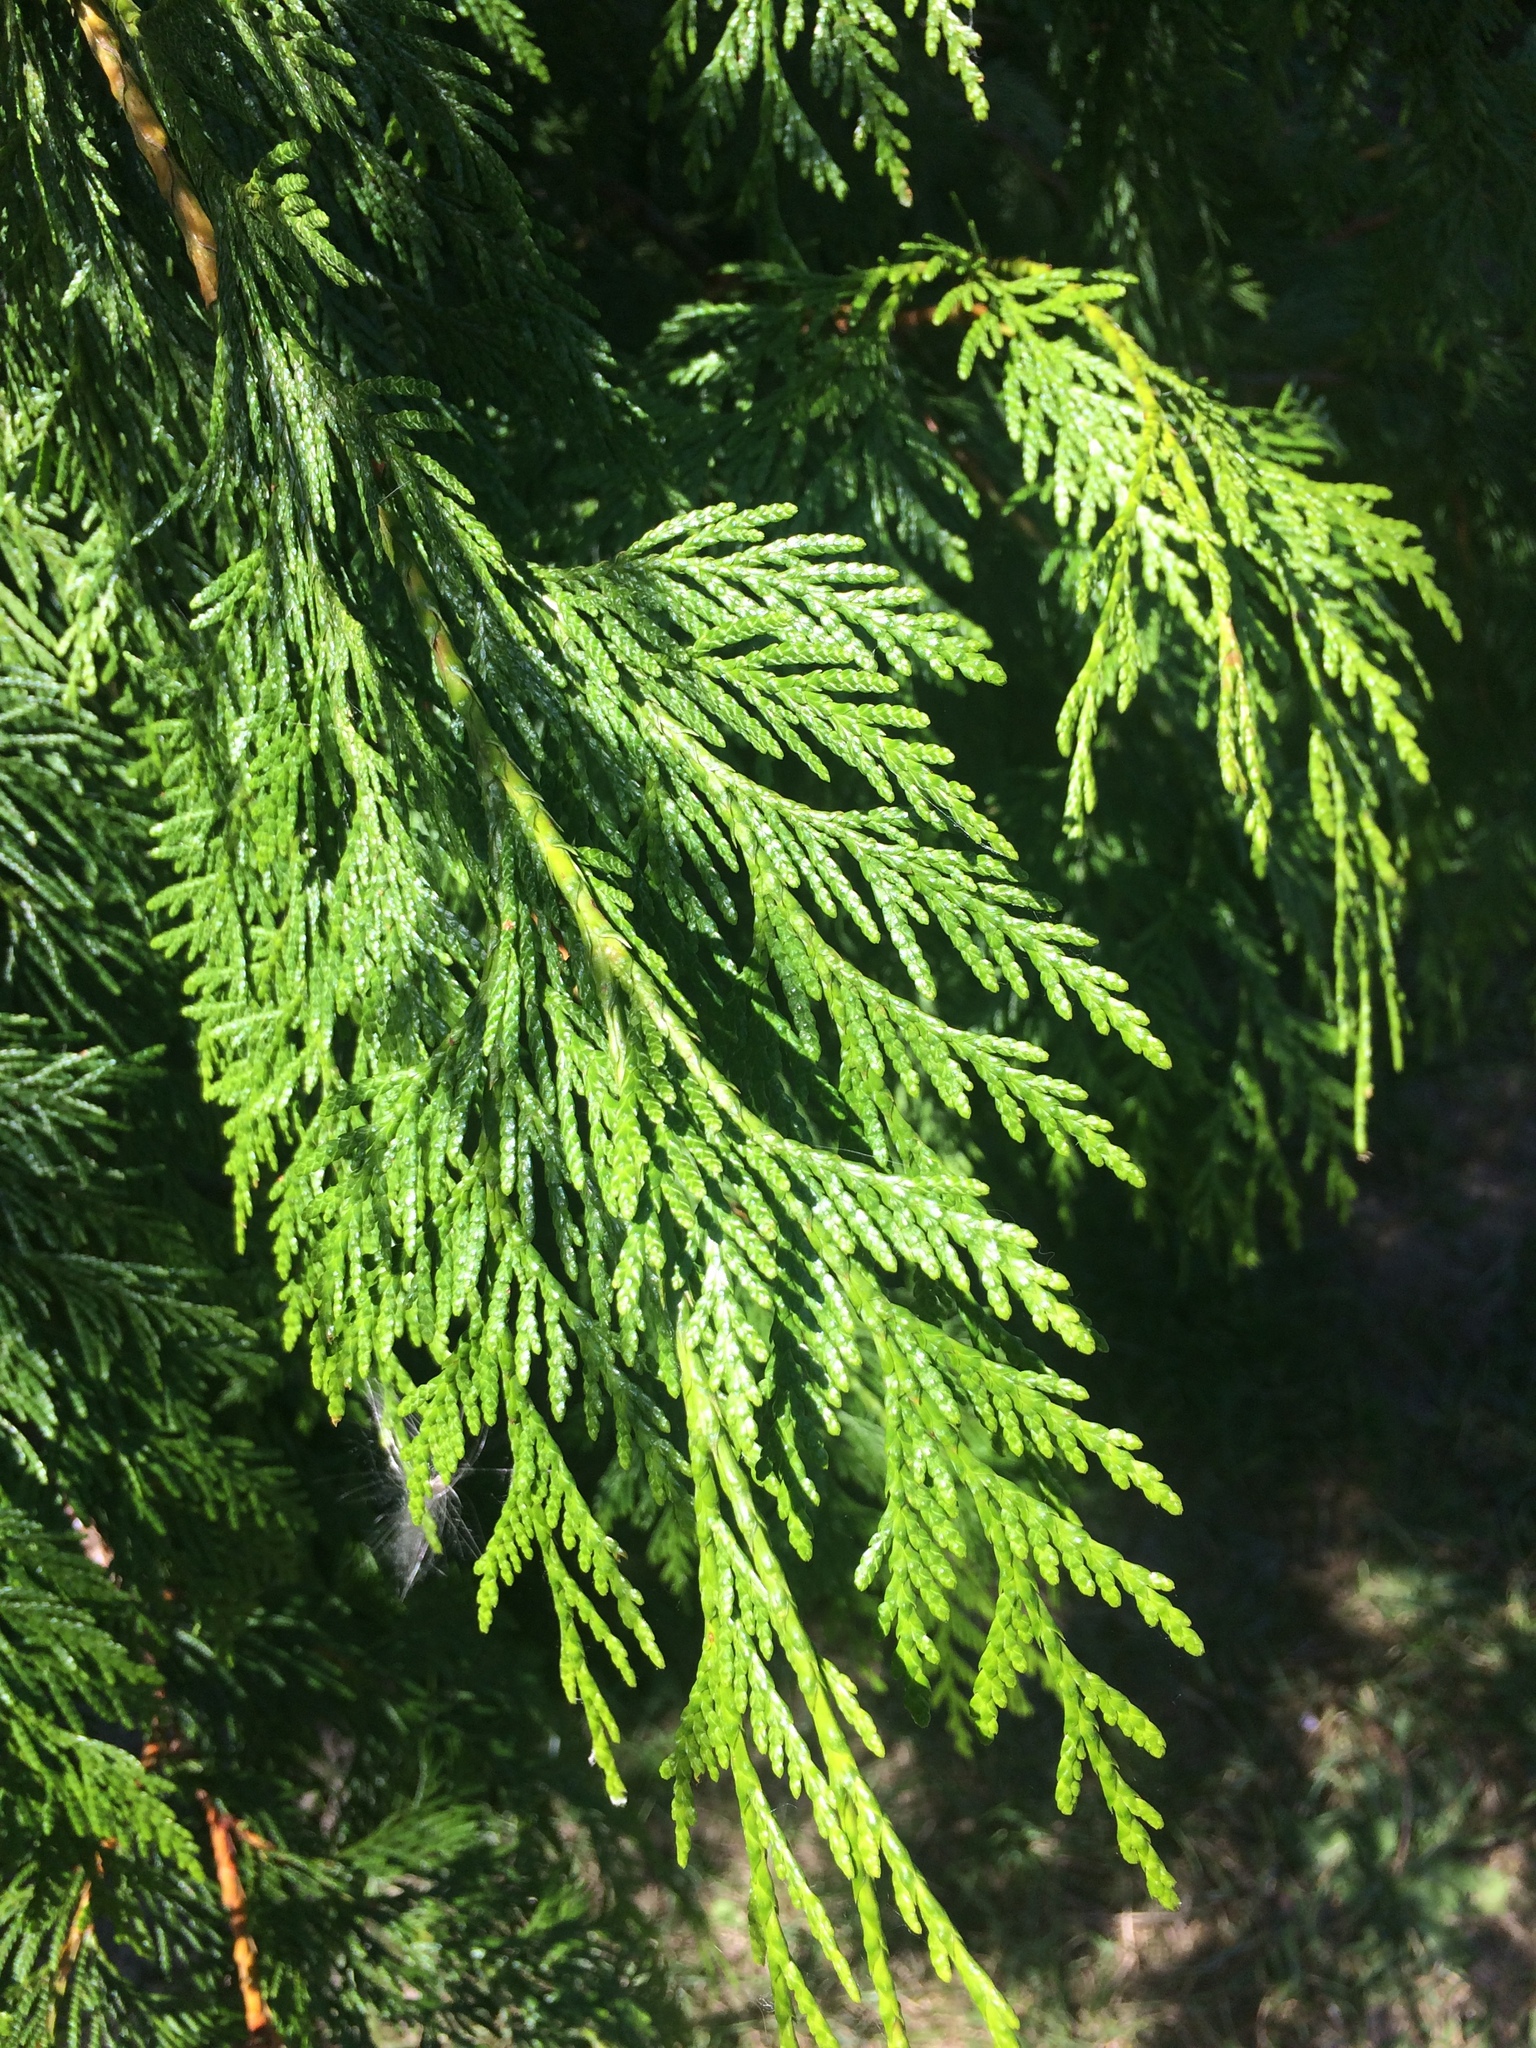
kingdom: Plantae
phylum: Tracheophyta
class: Pinopsida
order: Pinales
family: Cupressaceae
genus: Thuja
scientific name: Thuja plicata
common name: Western red-cedar
